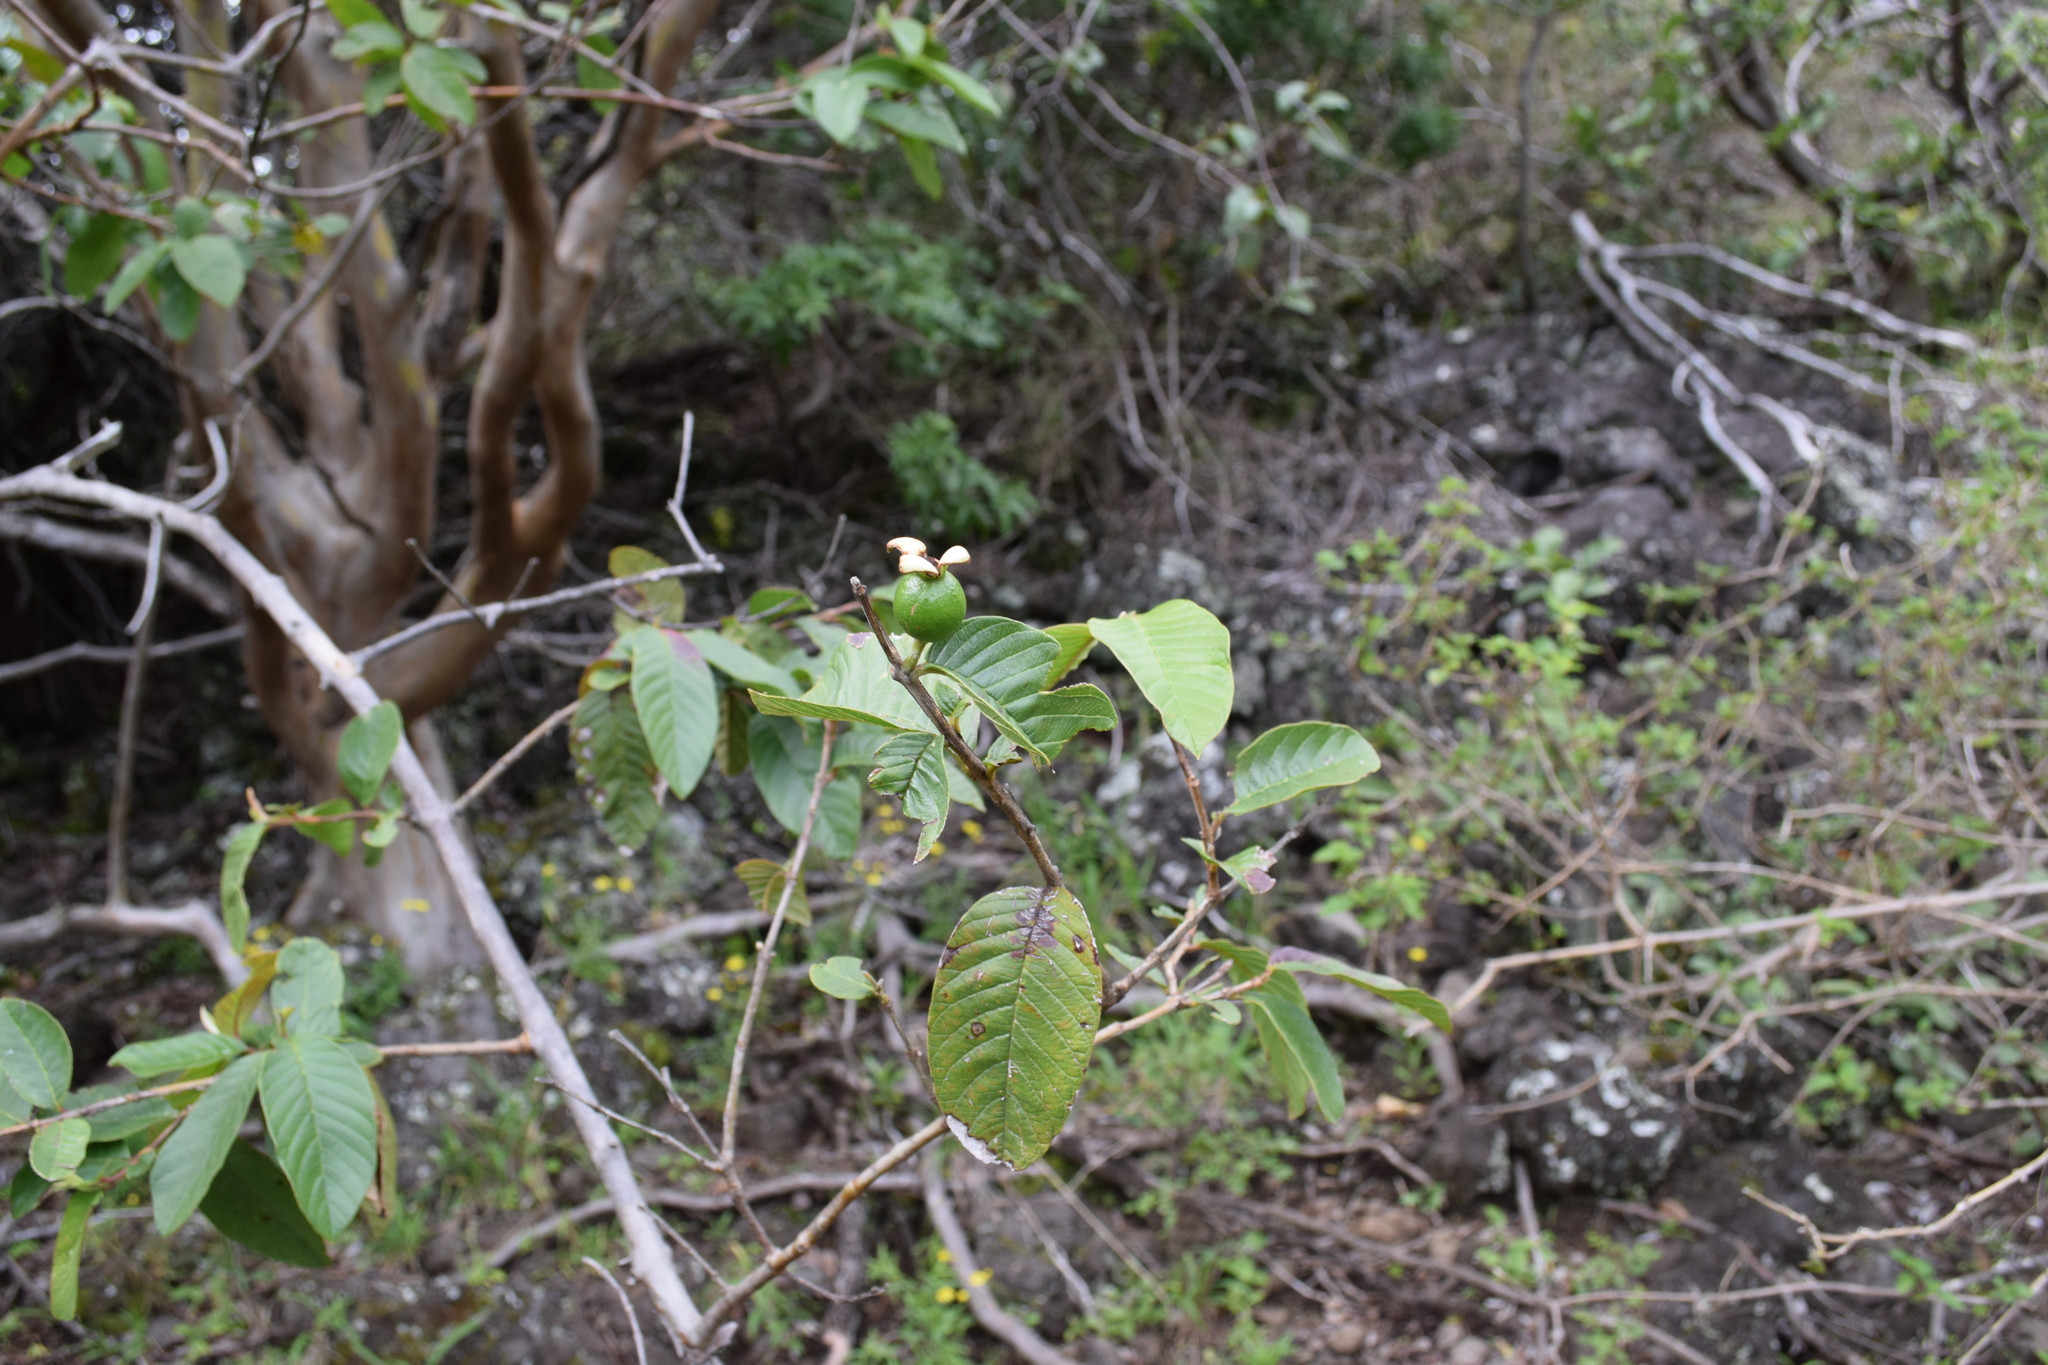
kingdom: Plantae
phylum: Tracheophyta
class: Magnoliopsida
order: Myrtales
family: Myrtaceae
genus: Psidium
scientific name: Psidium guajava
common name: Guava
